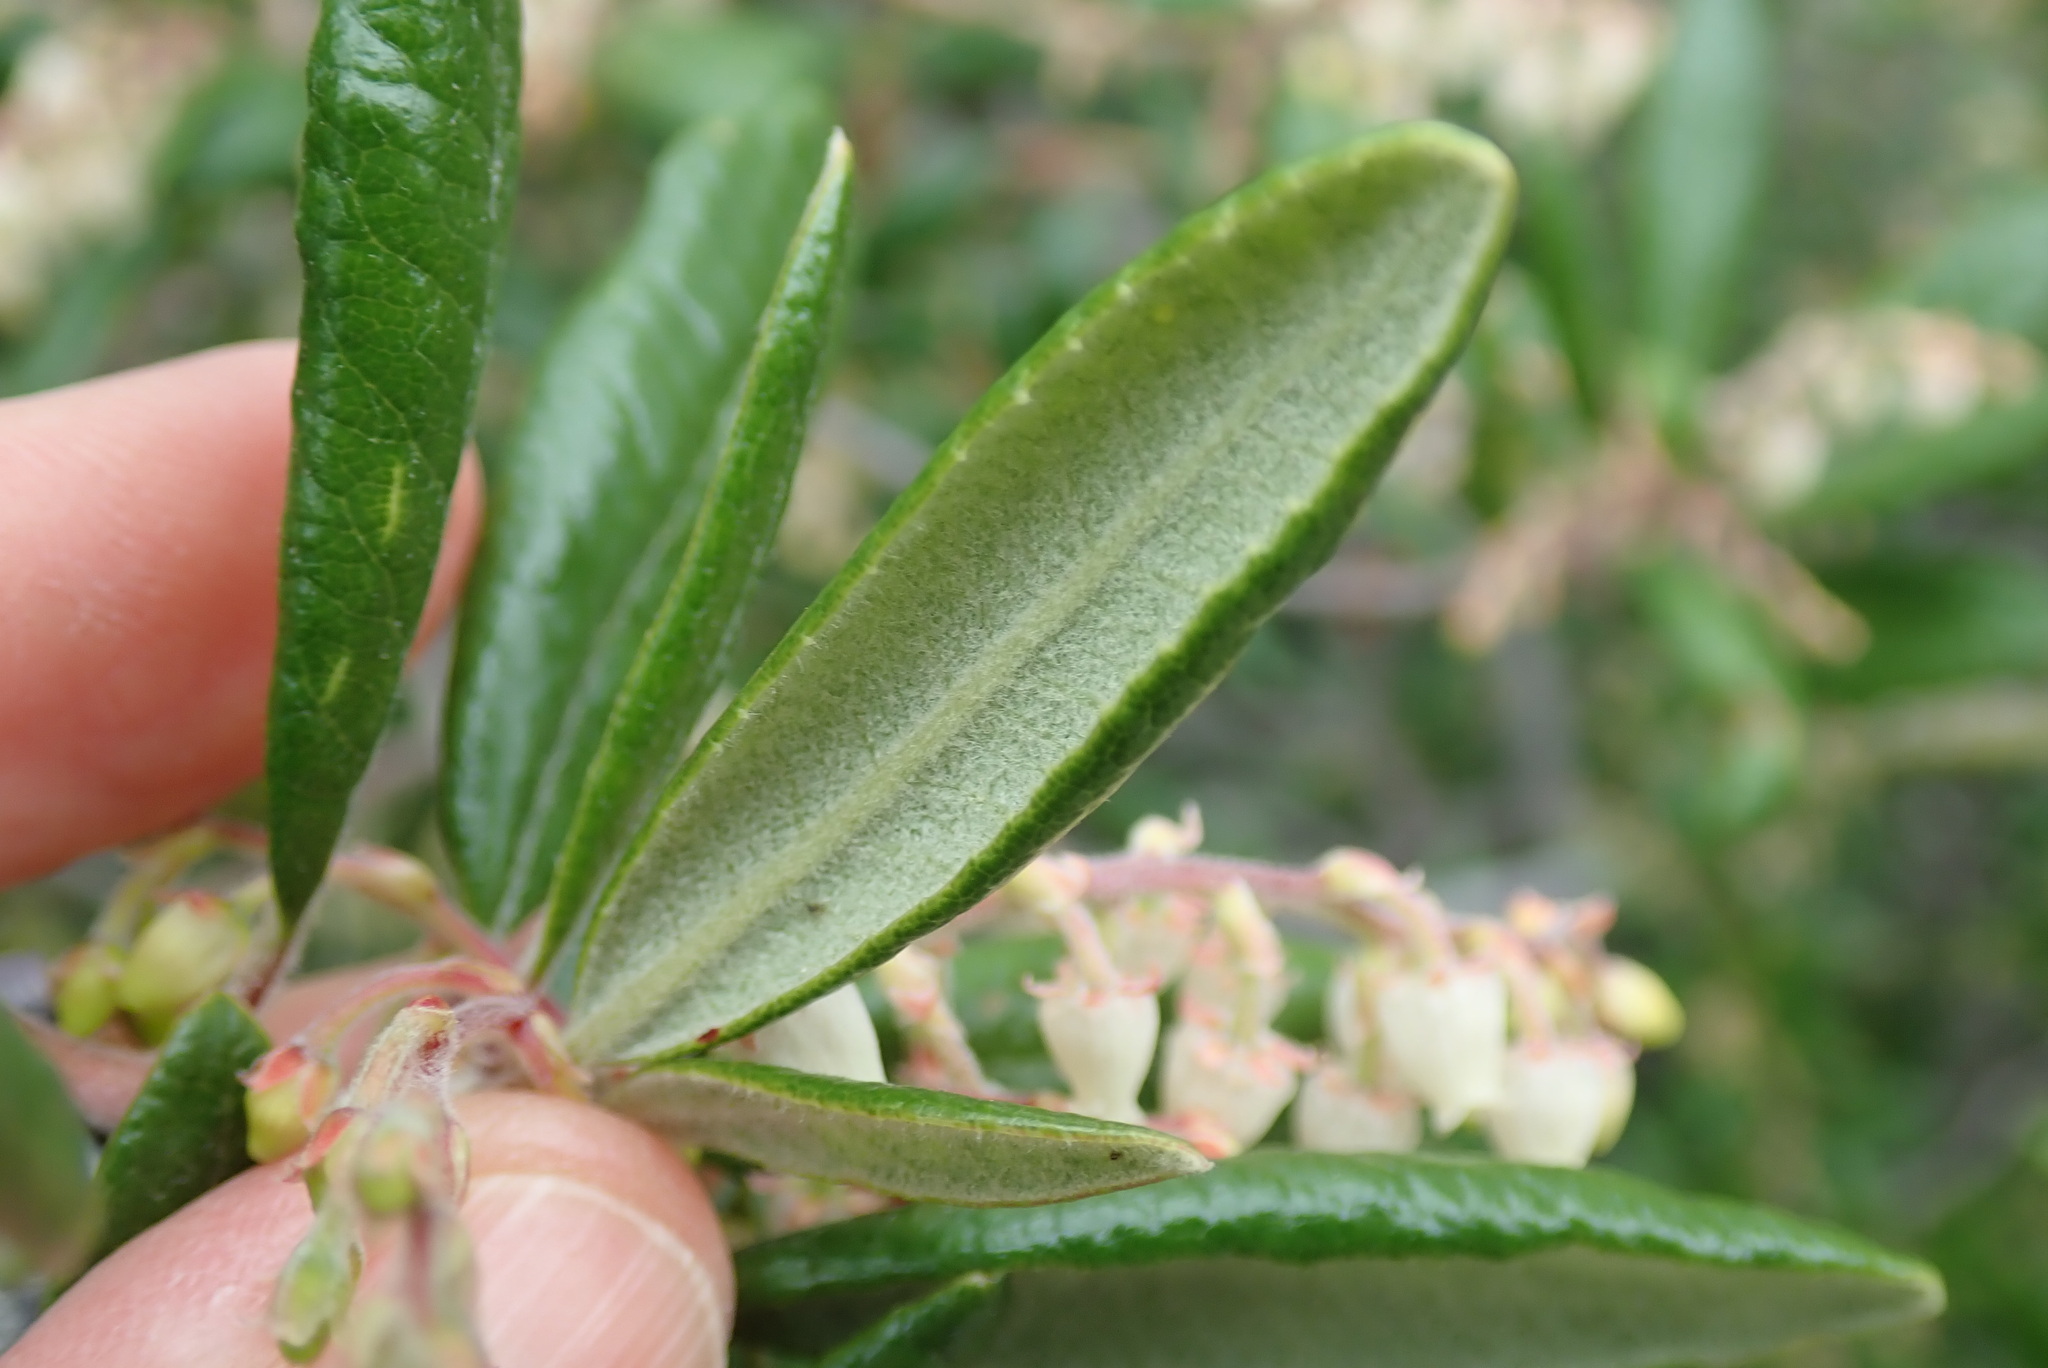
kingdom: Plantae
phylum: Tracheophyta
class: Magnoliopsida
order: Ericales
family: Ericaceae
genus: Comarostaphylis
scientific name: Comarostaphylis diversifolia
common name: Summer-holly
